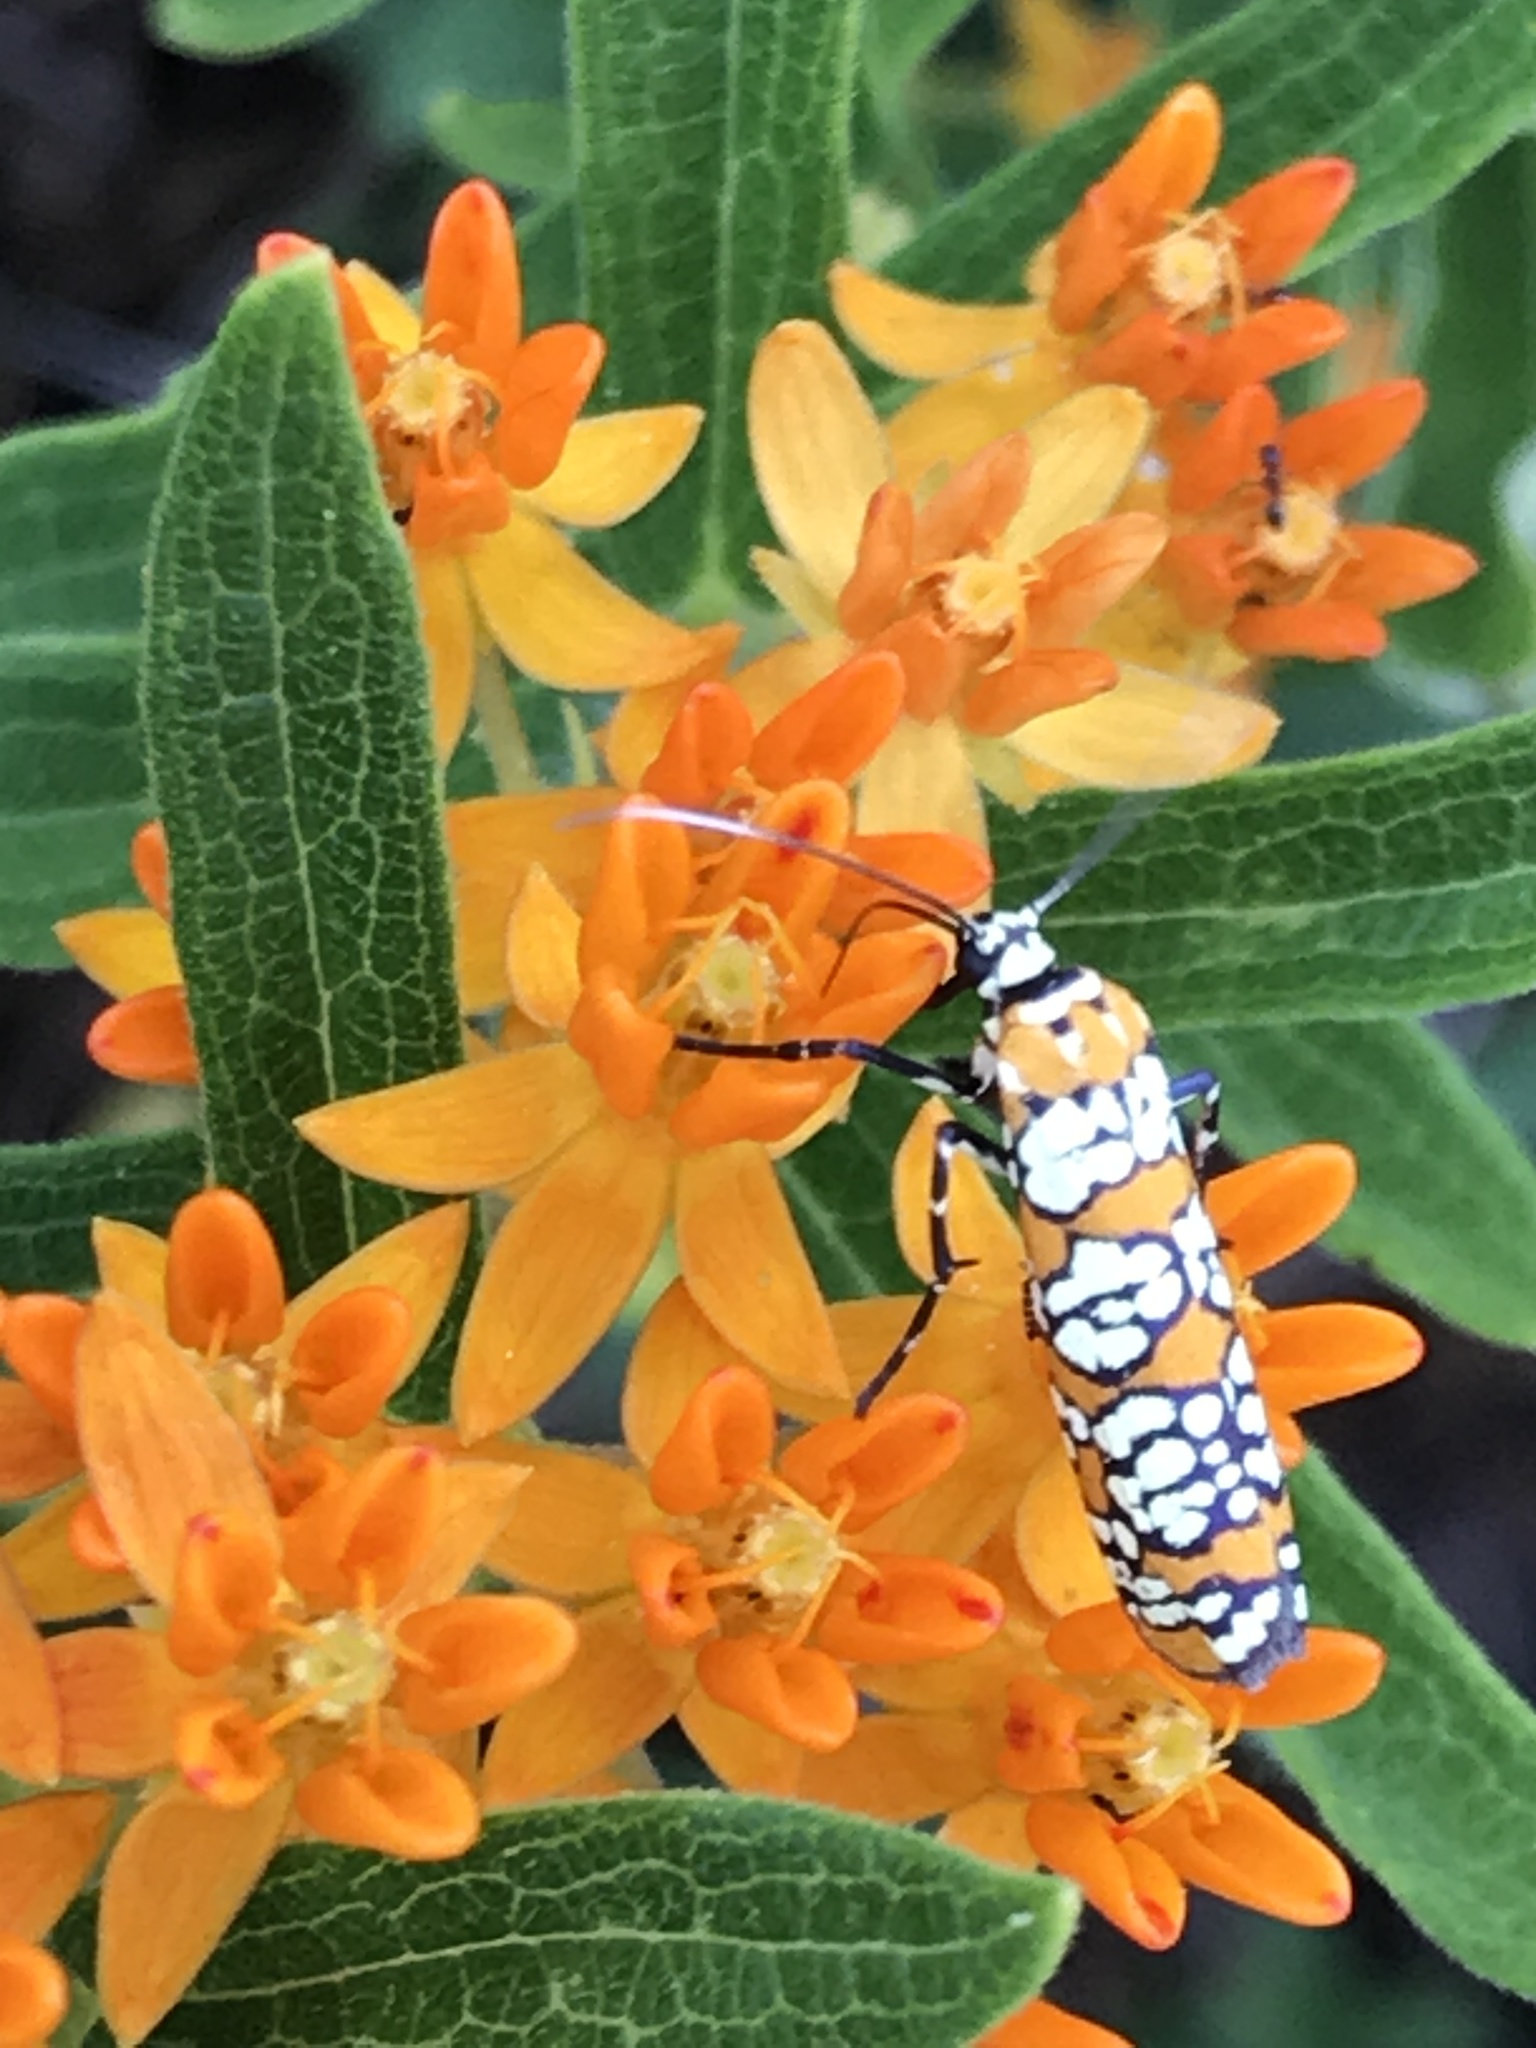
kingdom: Animalia
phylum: Arthropoda
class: Insecta
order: Lepidoptera
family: Attevidae
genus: Atteva
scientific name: Atteva punctella
